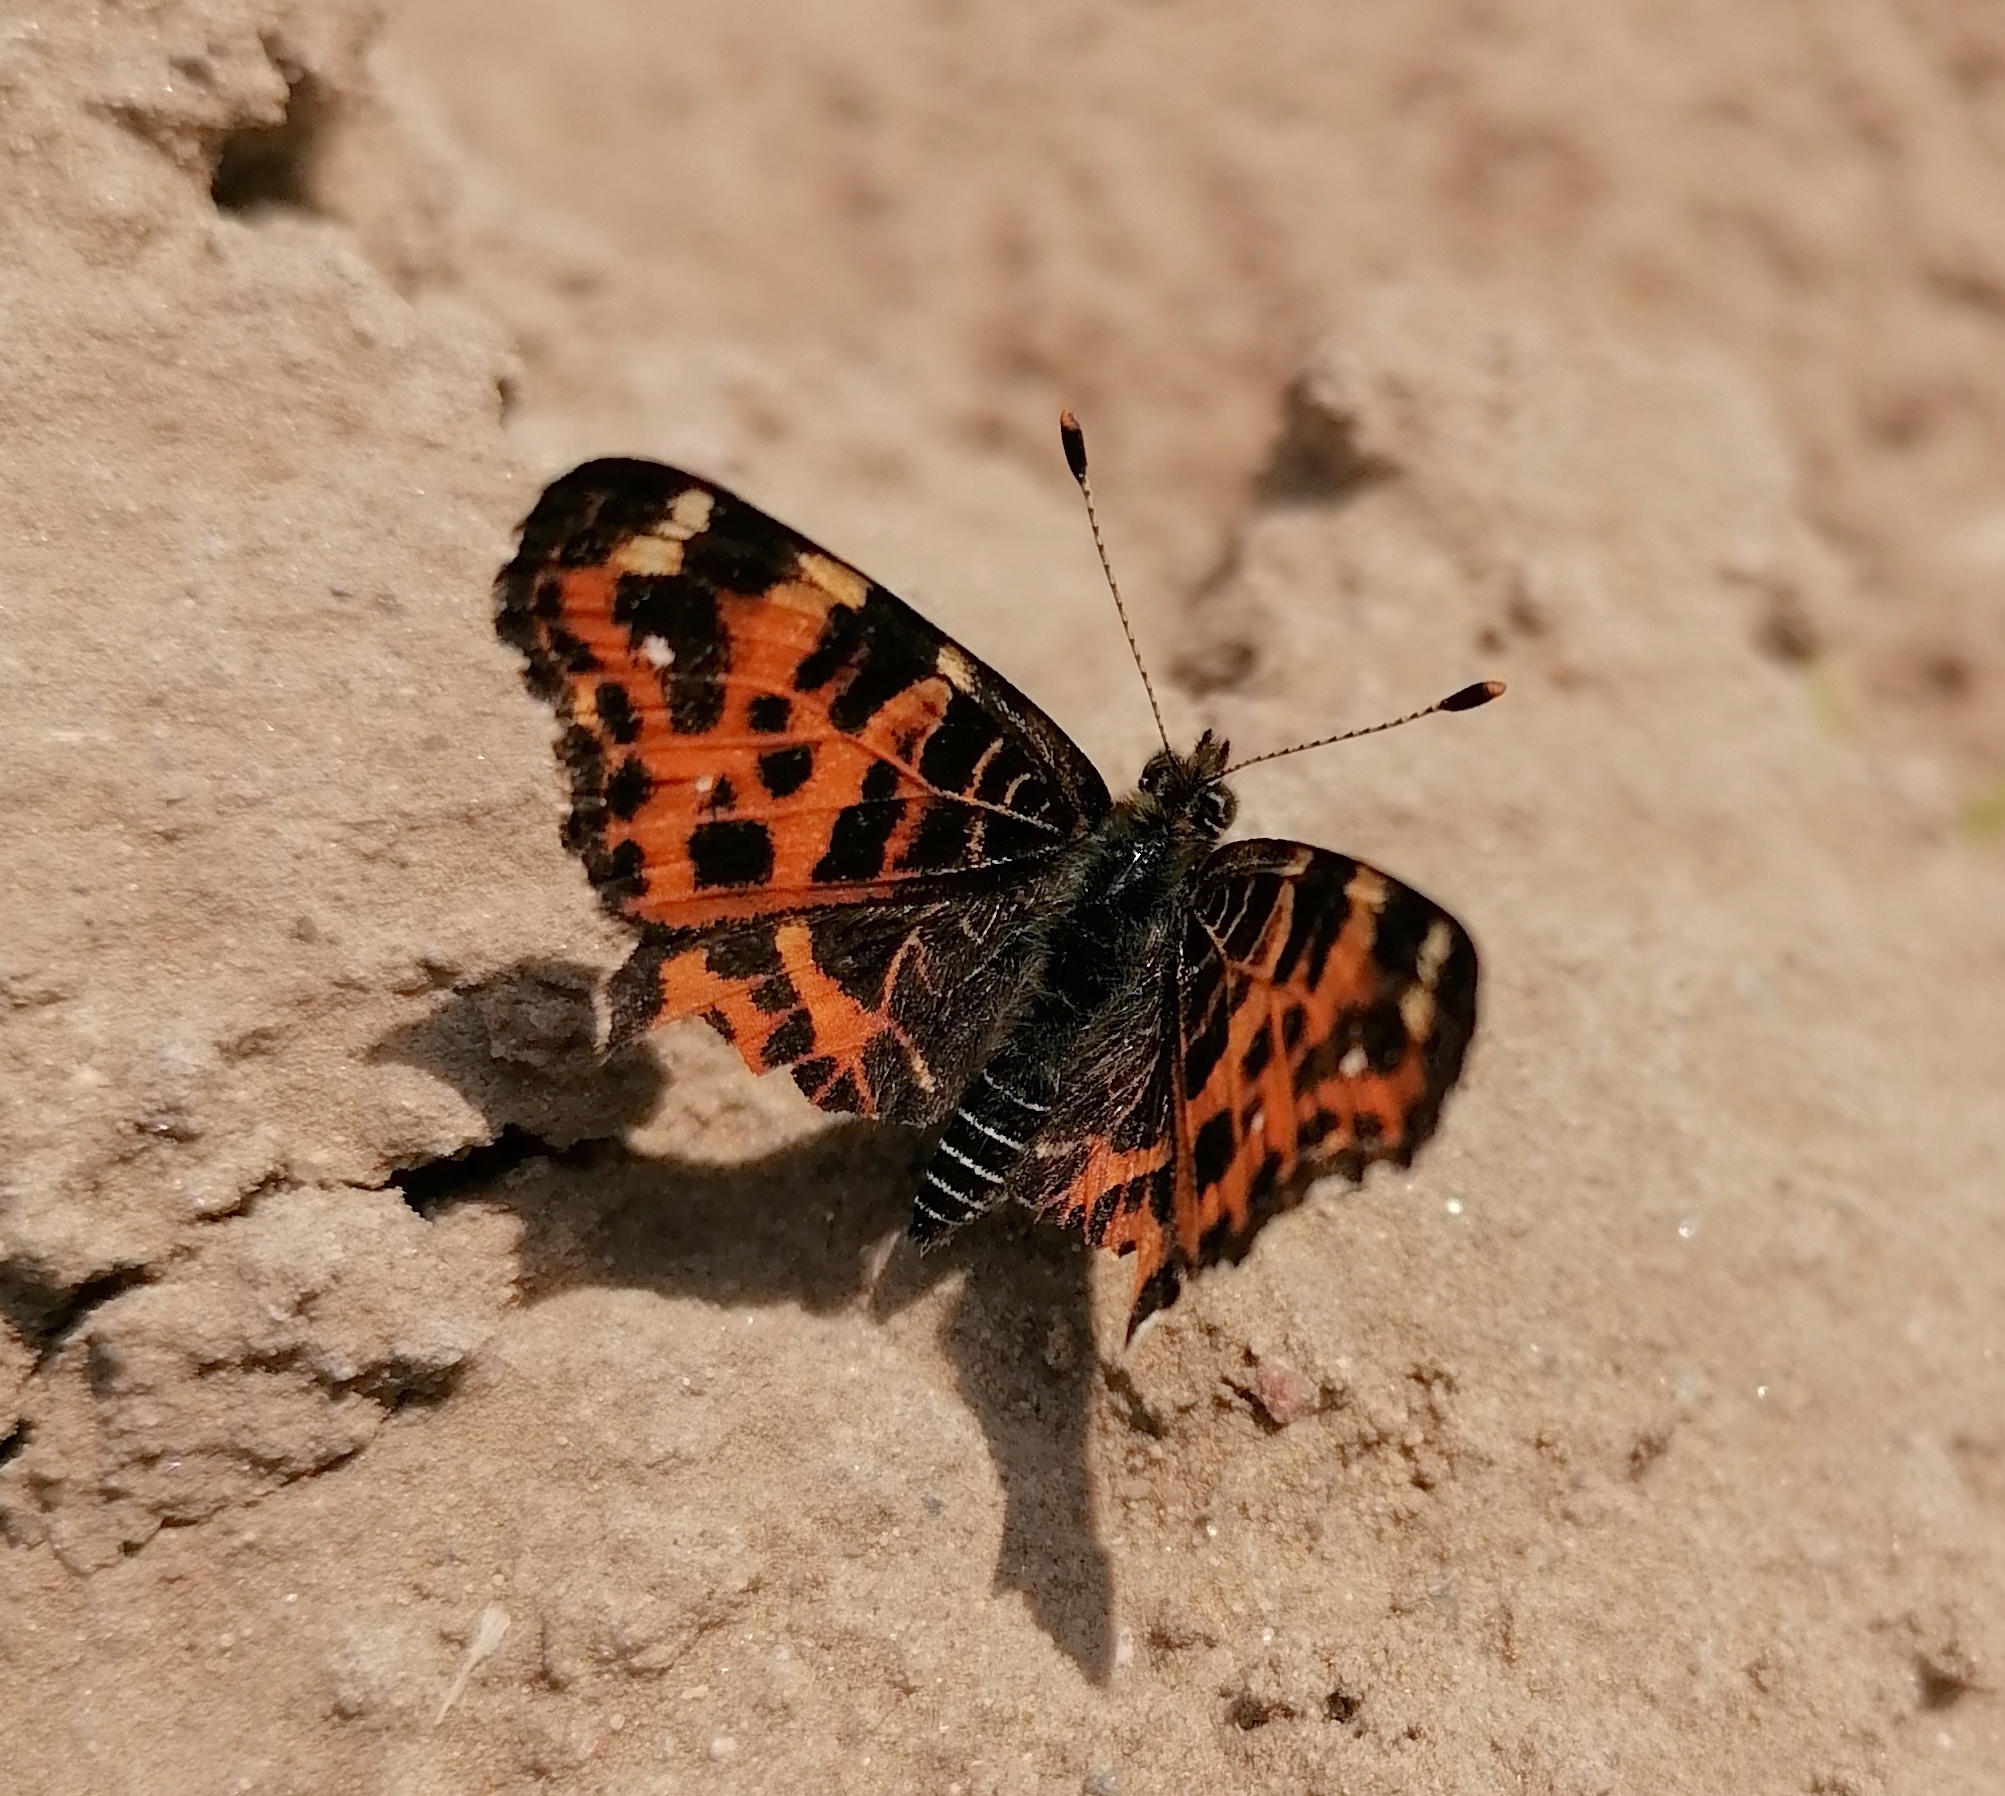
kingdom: Animalia
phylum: Arthropoda
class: Insecta
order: Lepidoptera
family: Nymphalidae
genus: Araschnia
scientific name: Araschnia levana
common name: Map butterfly
